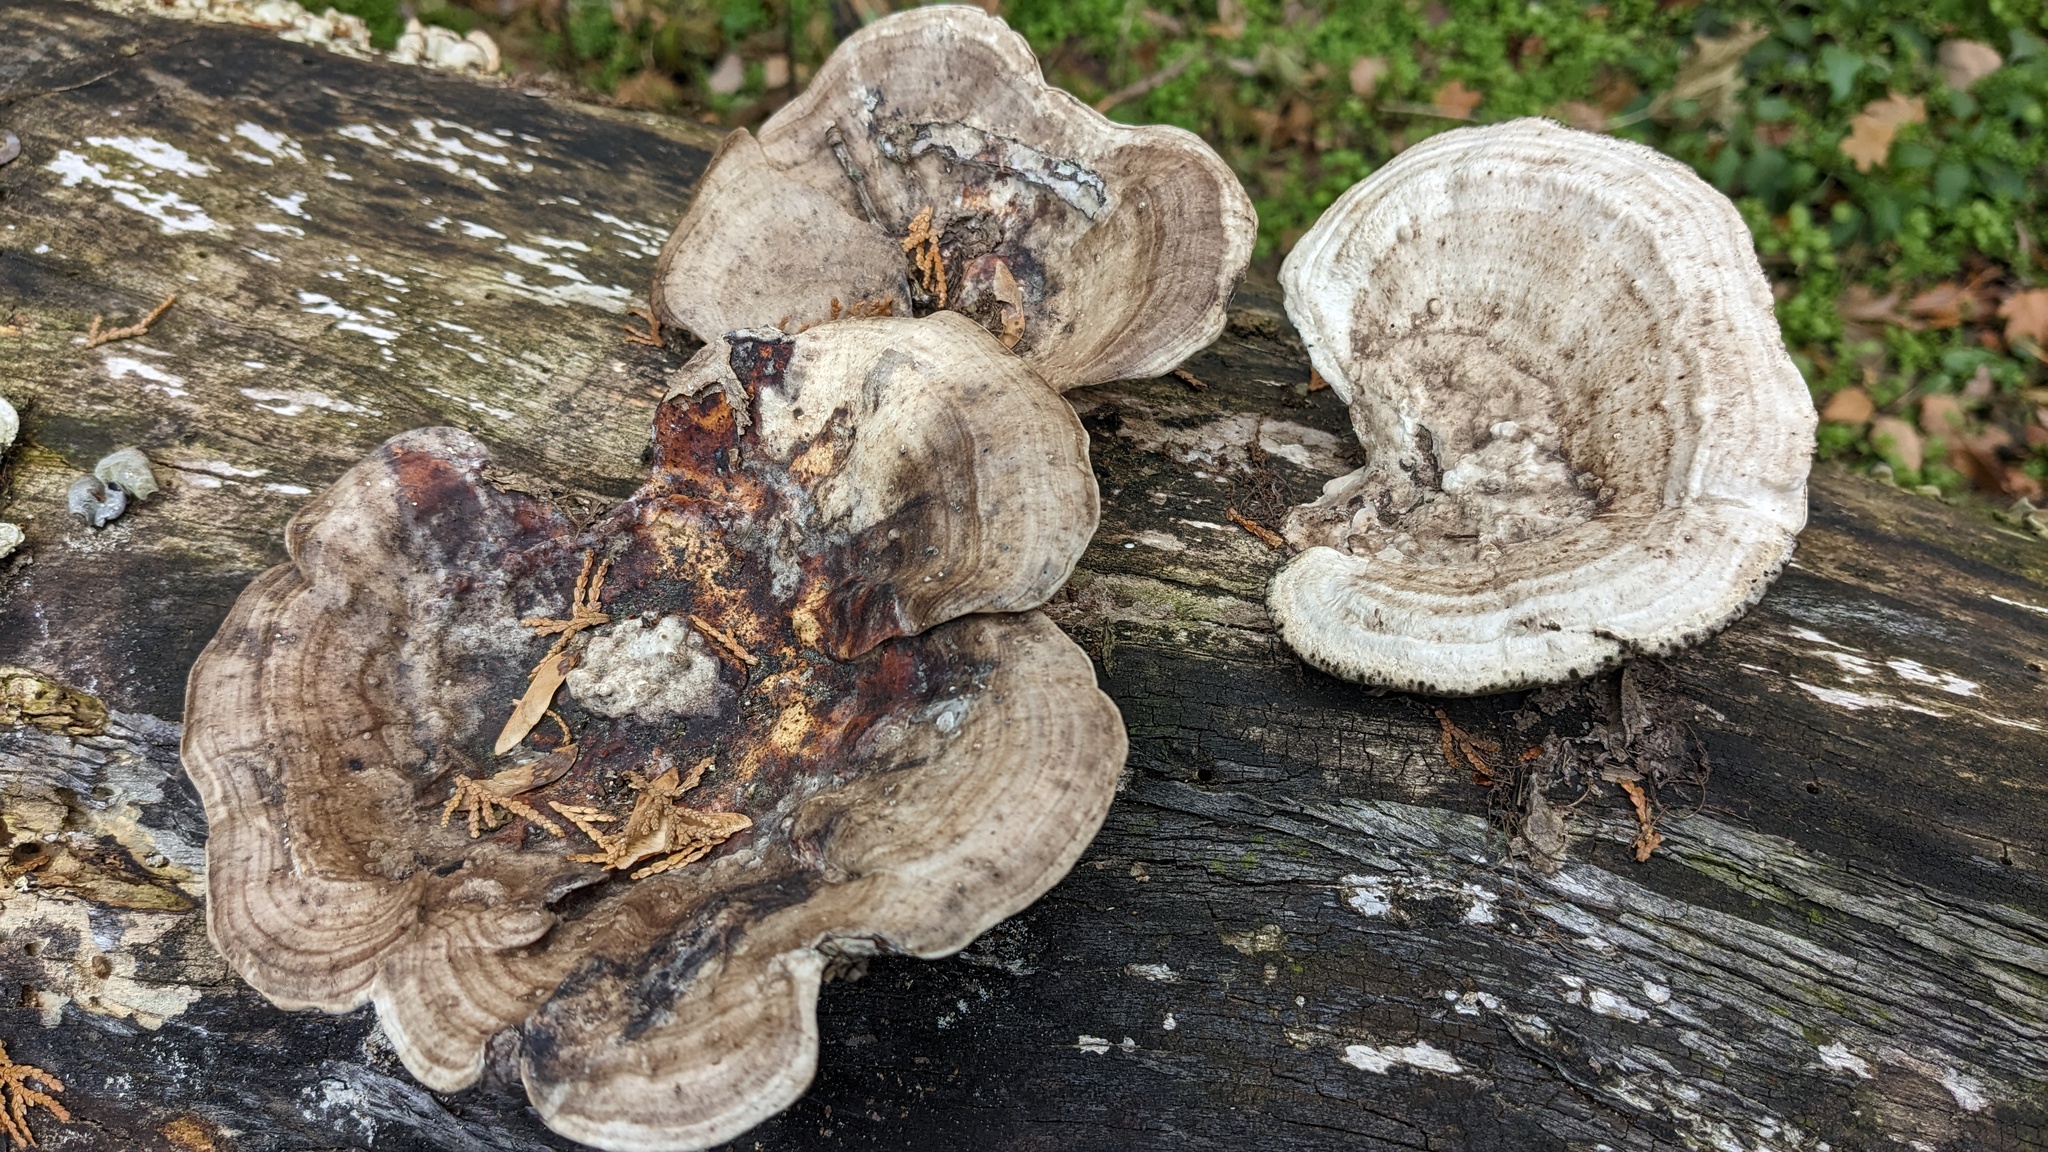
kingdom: Fungi
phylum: Basidiomycota
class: Agaricomycetes
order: Polyporales
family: Polyporaceae
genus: Trametes
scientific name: Trametes elegans
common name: White maze polypore
